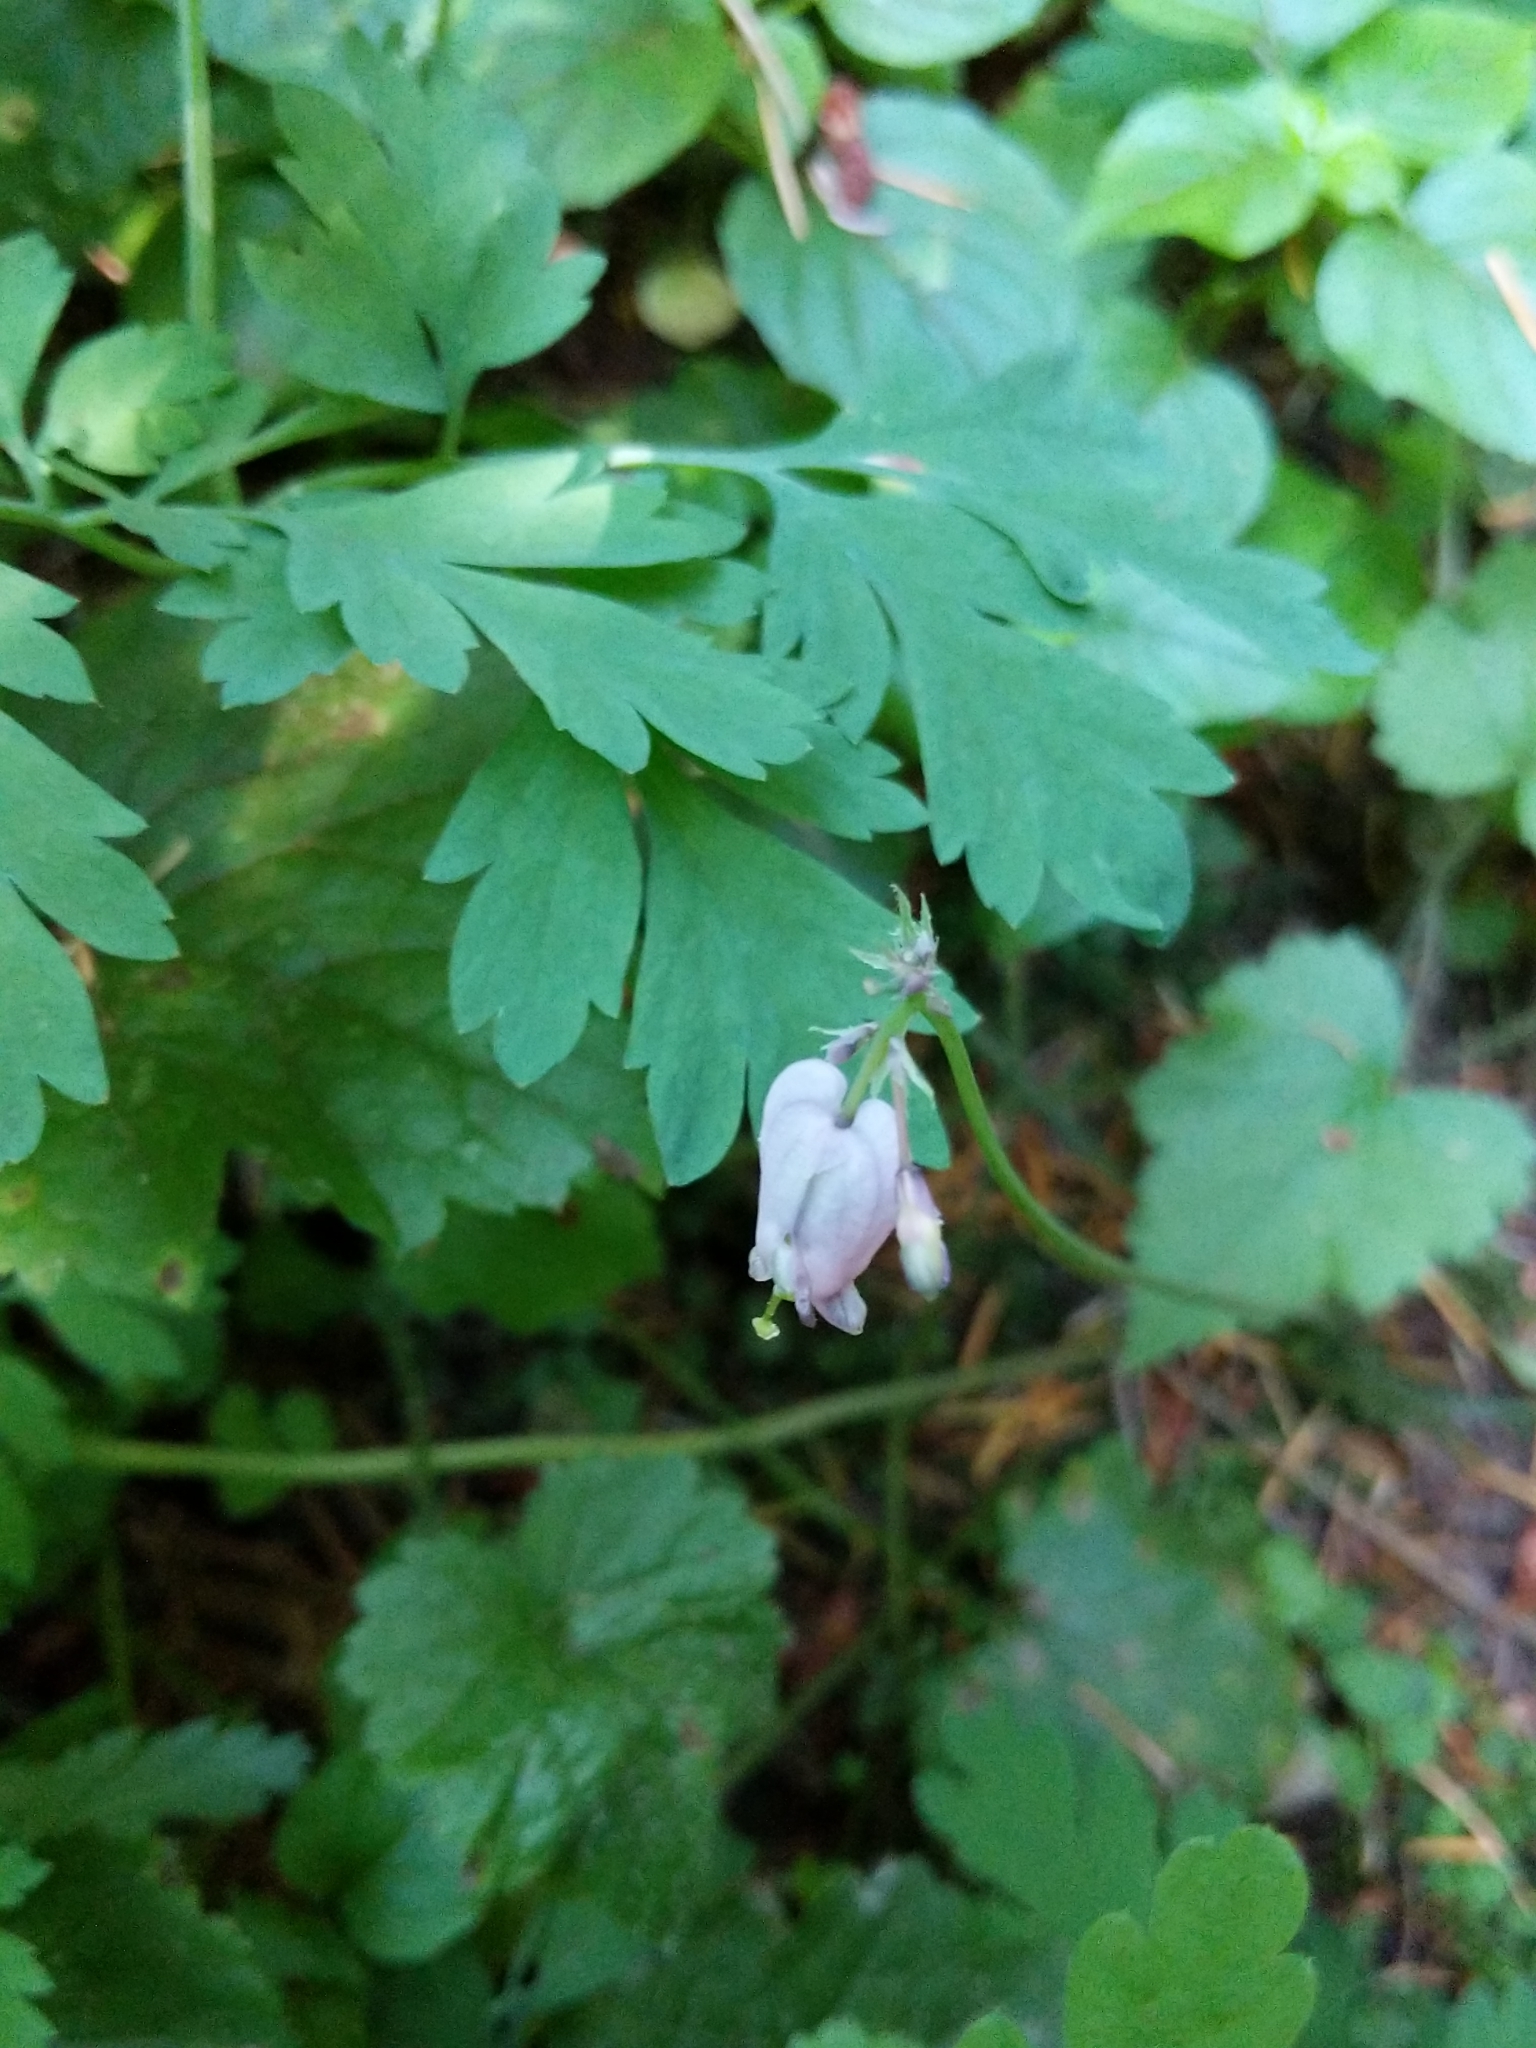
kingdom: Plantae
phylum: Tracheophyta
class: Magnoliopsida
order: Ranunculales
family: Papaveraceae
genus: Dicentra
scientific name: Dicentra formosa
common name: Bleeding-heart
